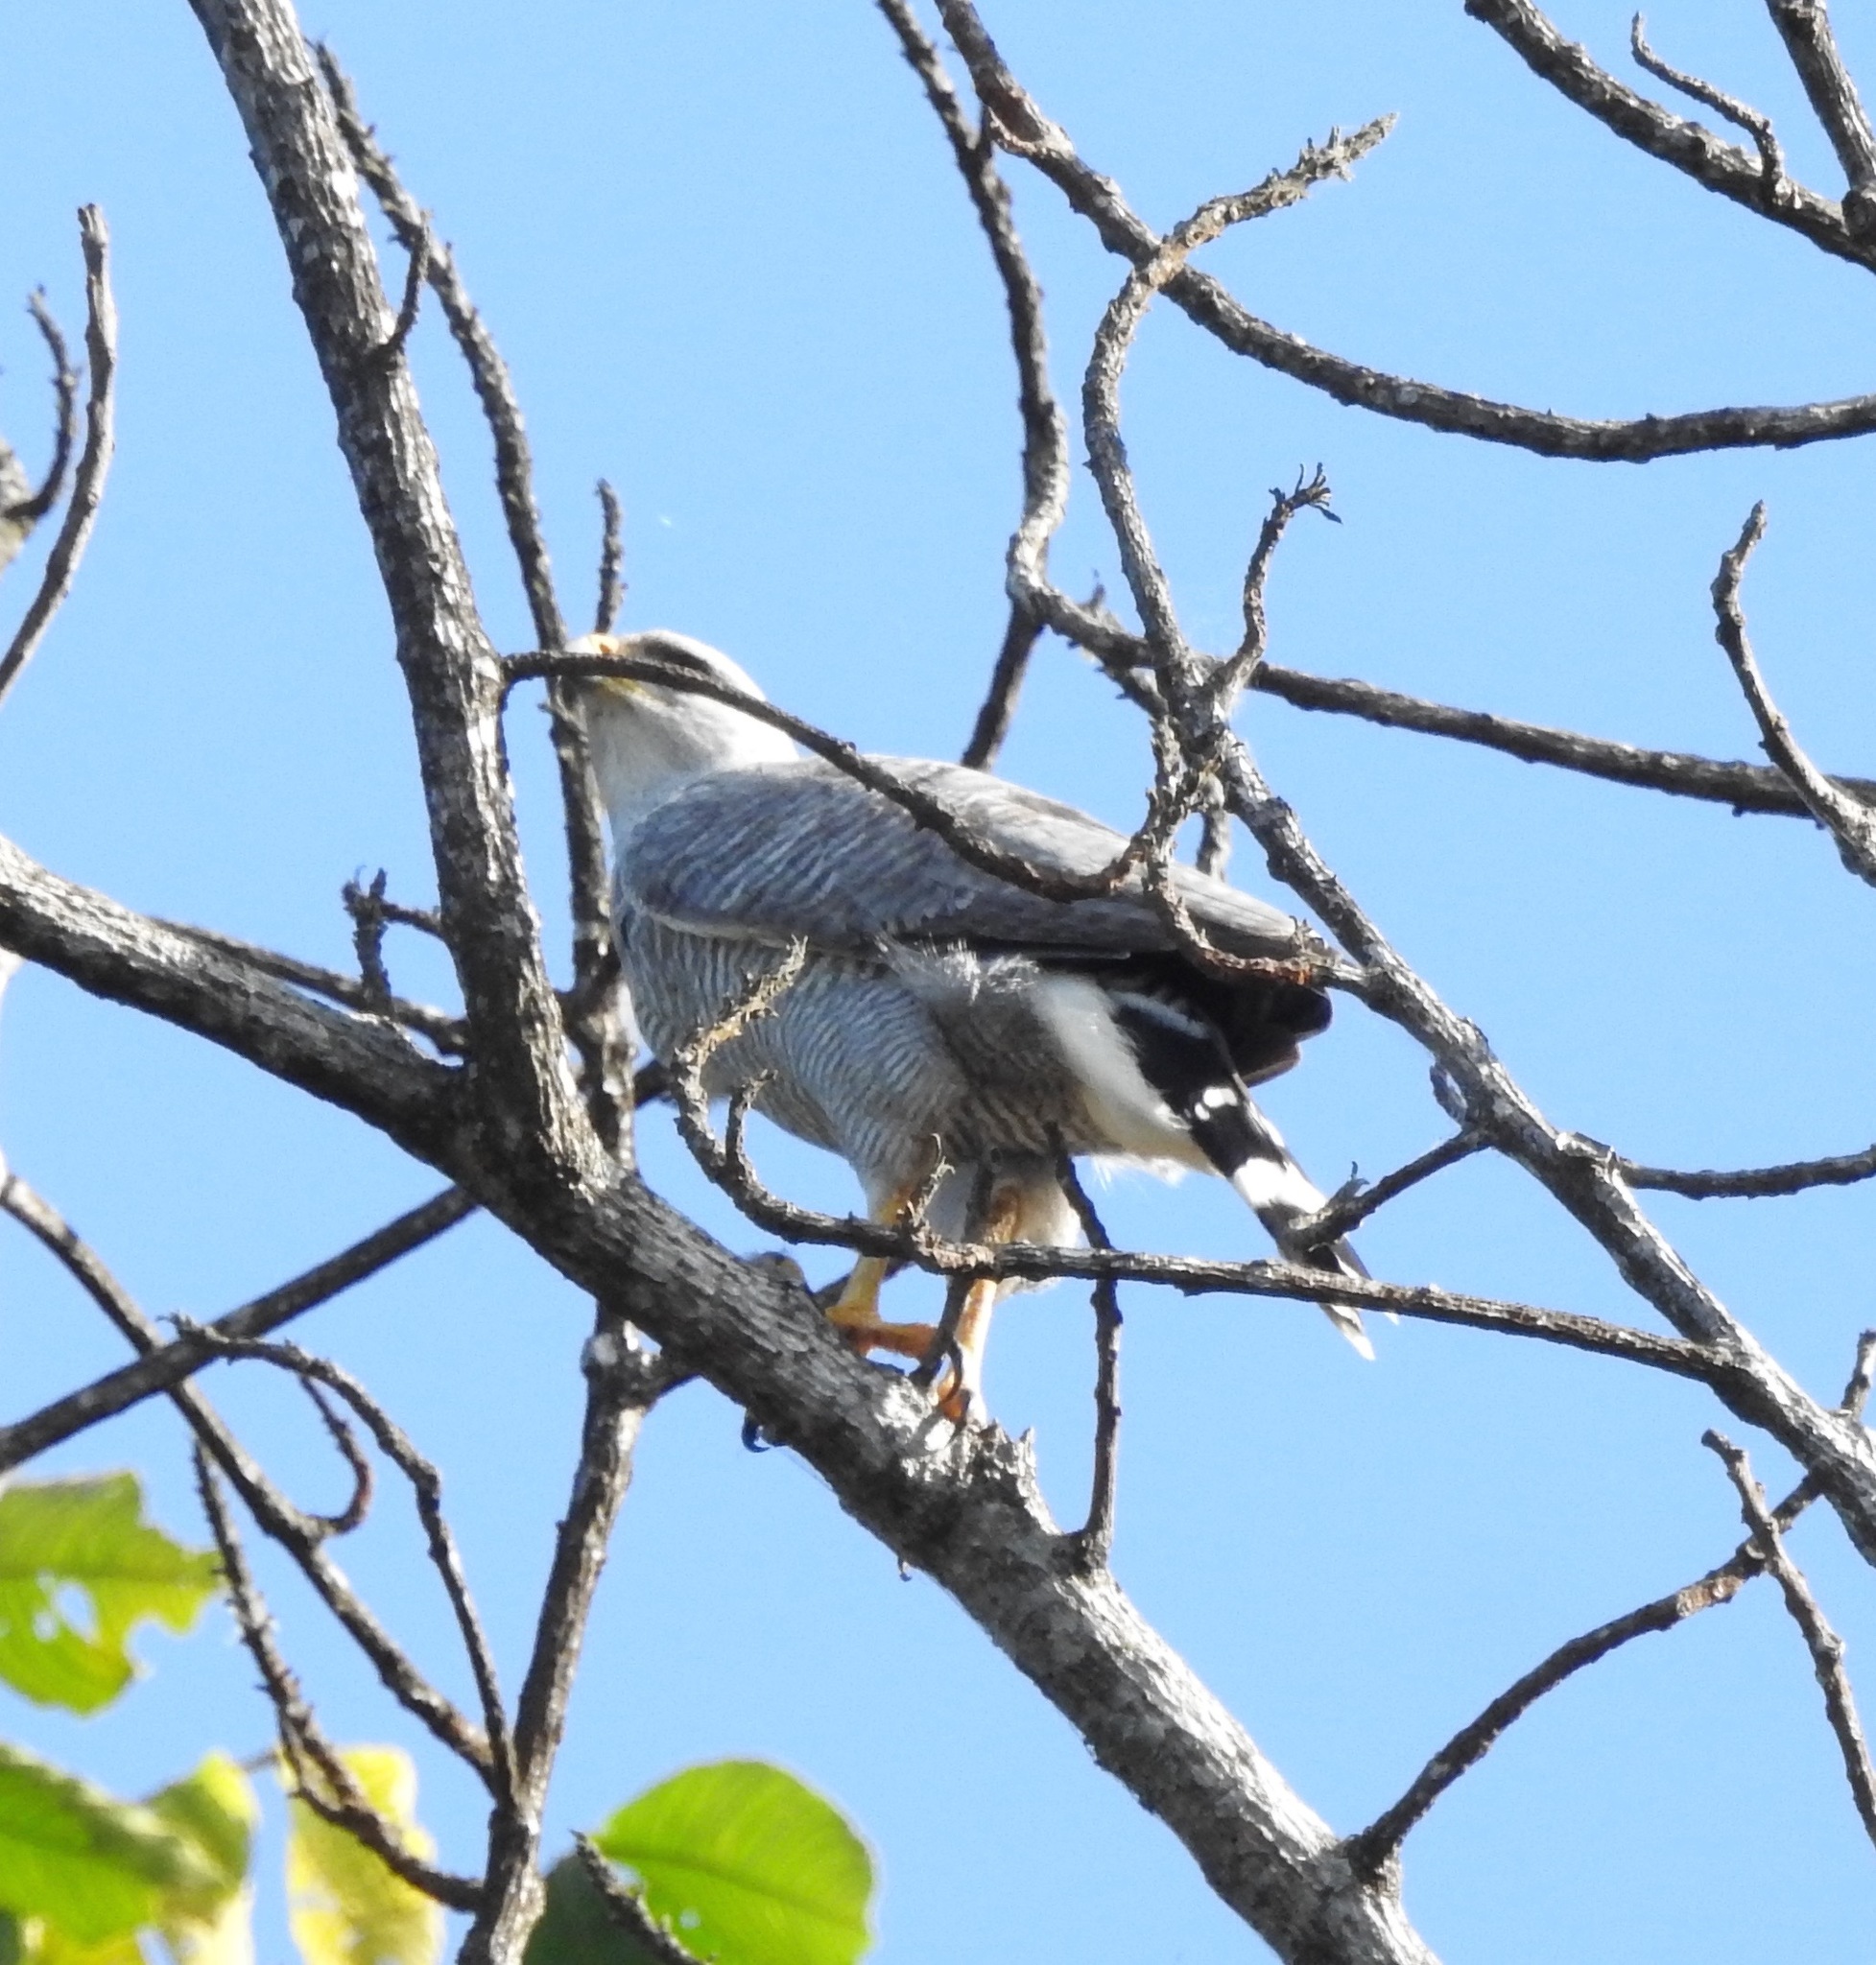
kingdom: Animalia
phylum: Chordata
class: Aves
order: Accipitriformes
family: Accipitridae
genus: Buteo
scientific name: Buteo nitidus
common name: Grey-lined hawk
